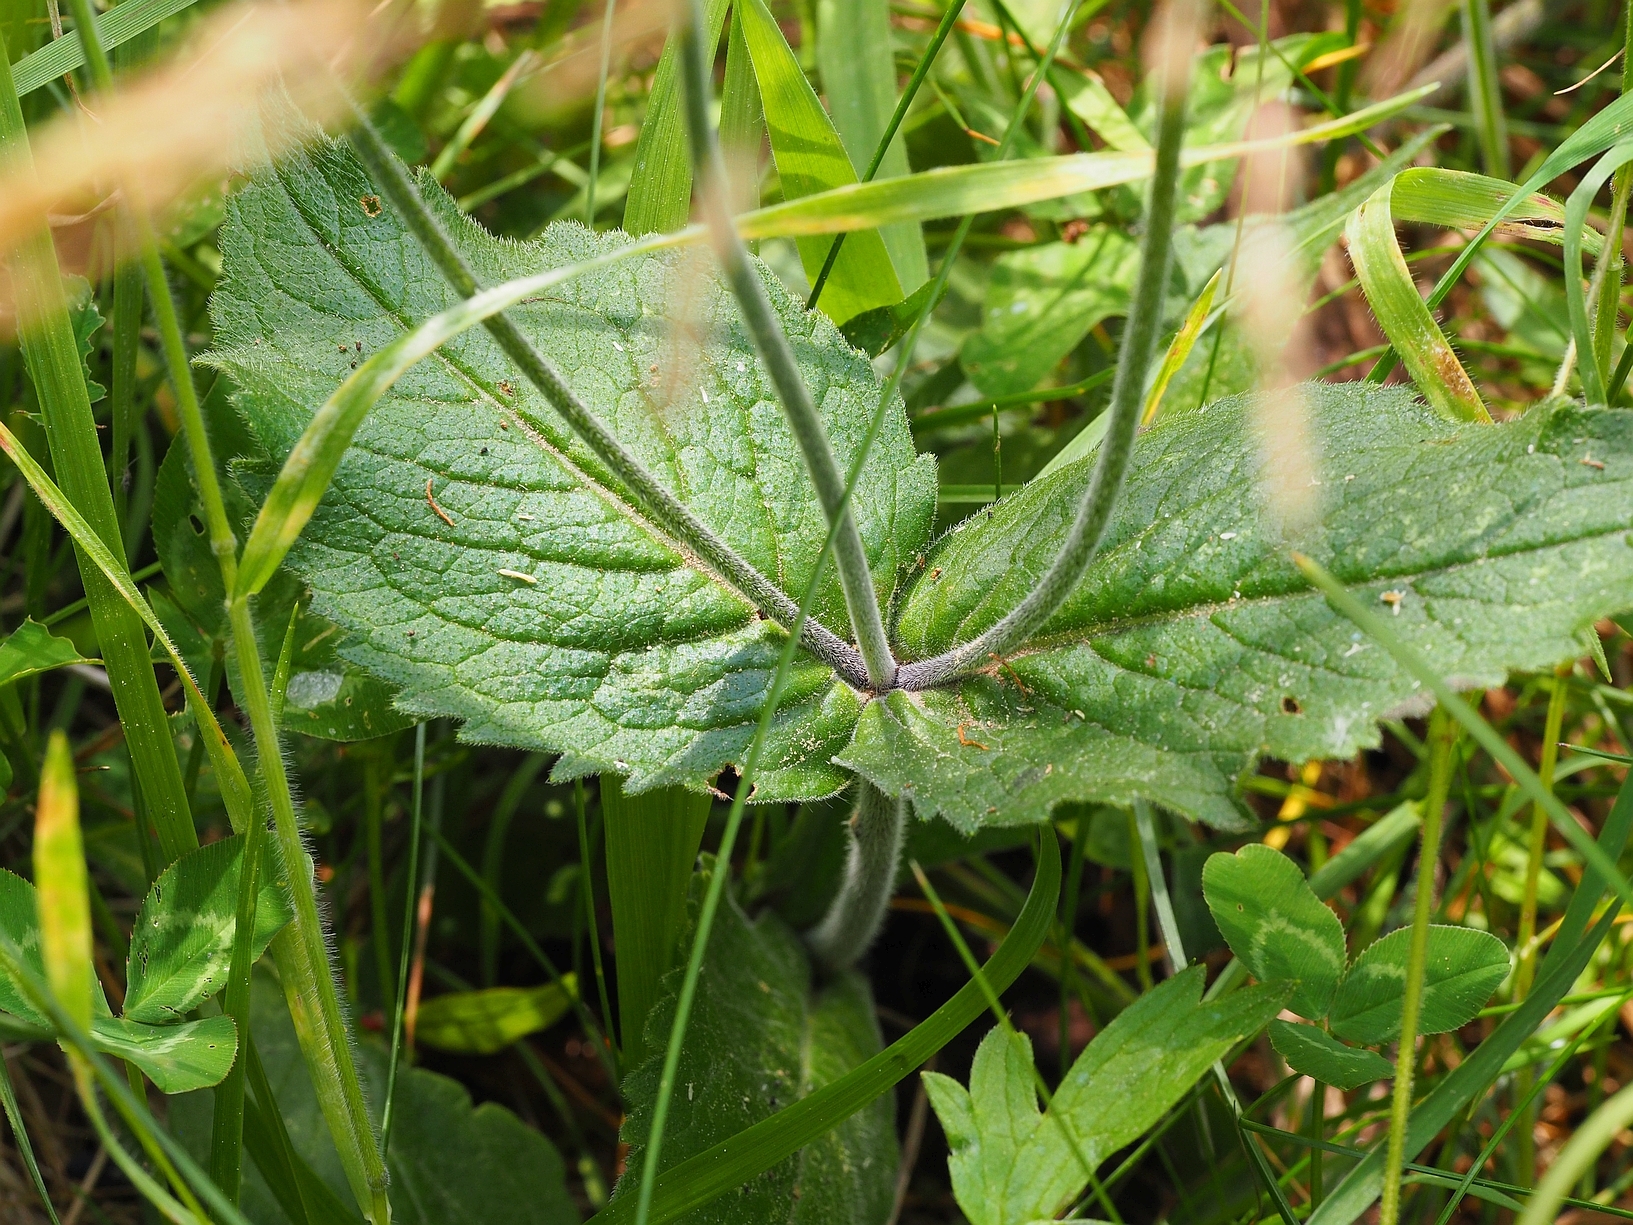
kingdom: Plantae
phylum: Tracheophyta
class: Magnoliopsida
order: Dipsacales
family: Caprifoliaceae
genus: Knautia
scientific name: Knautia drymeia
